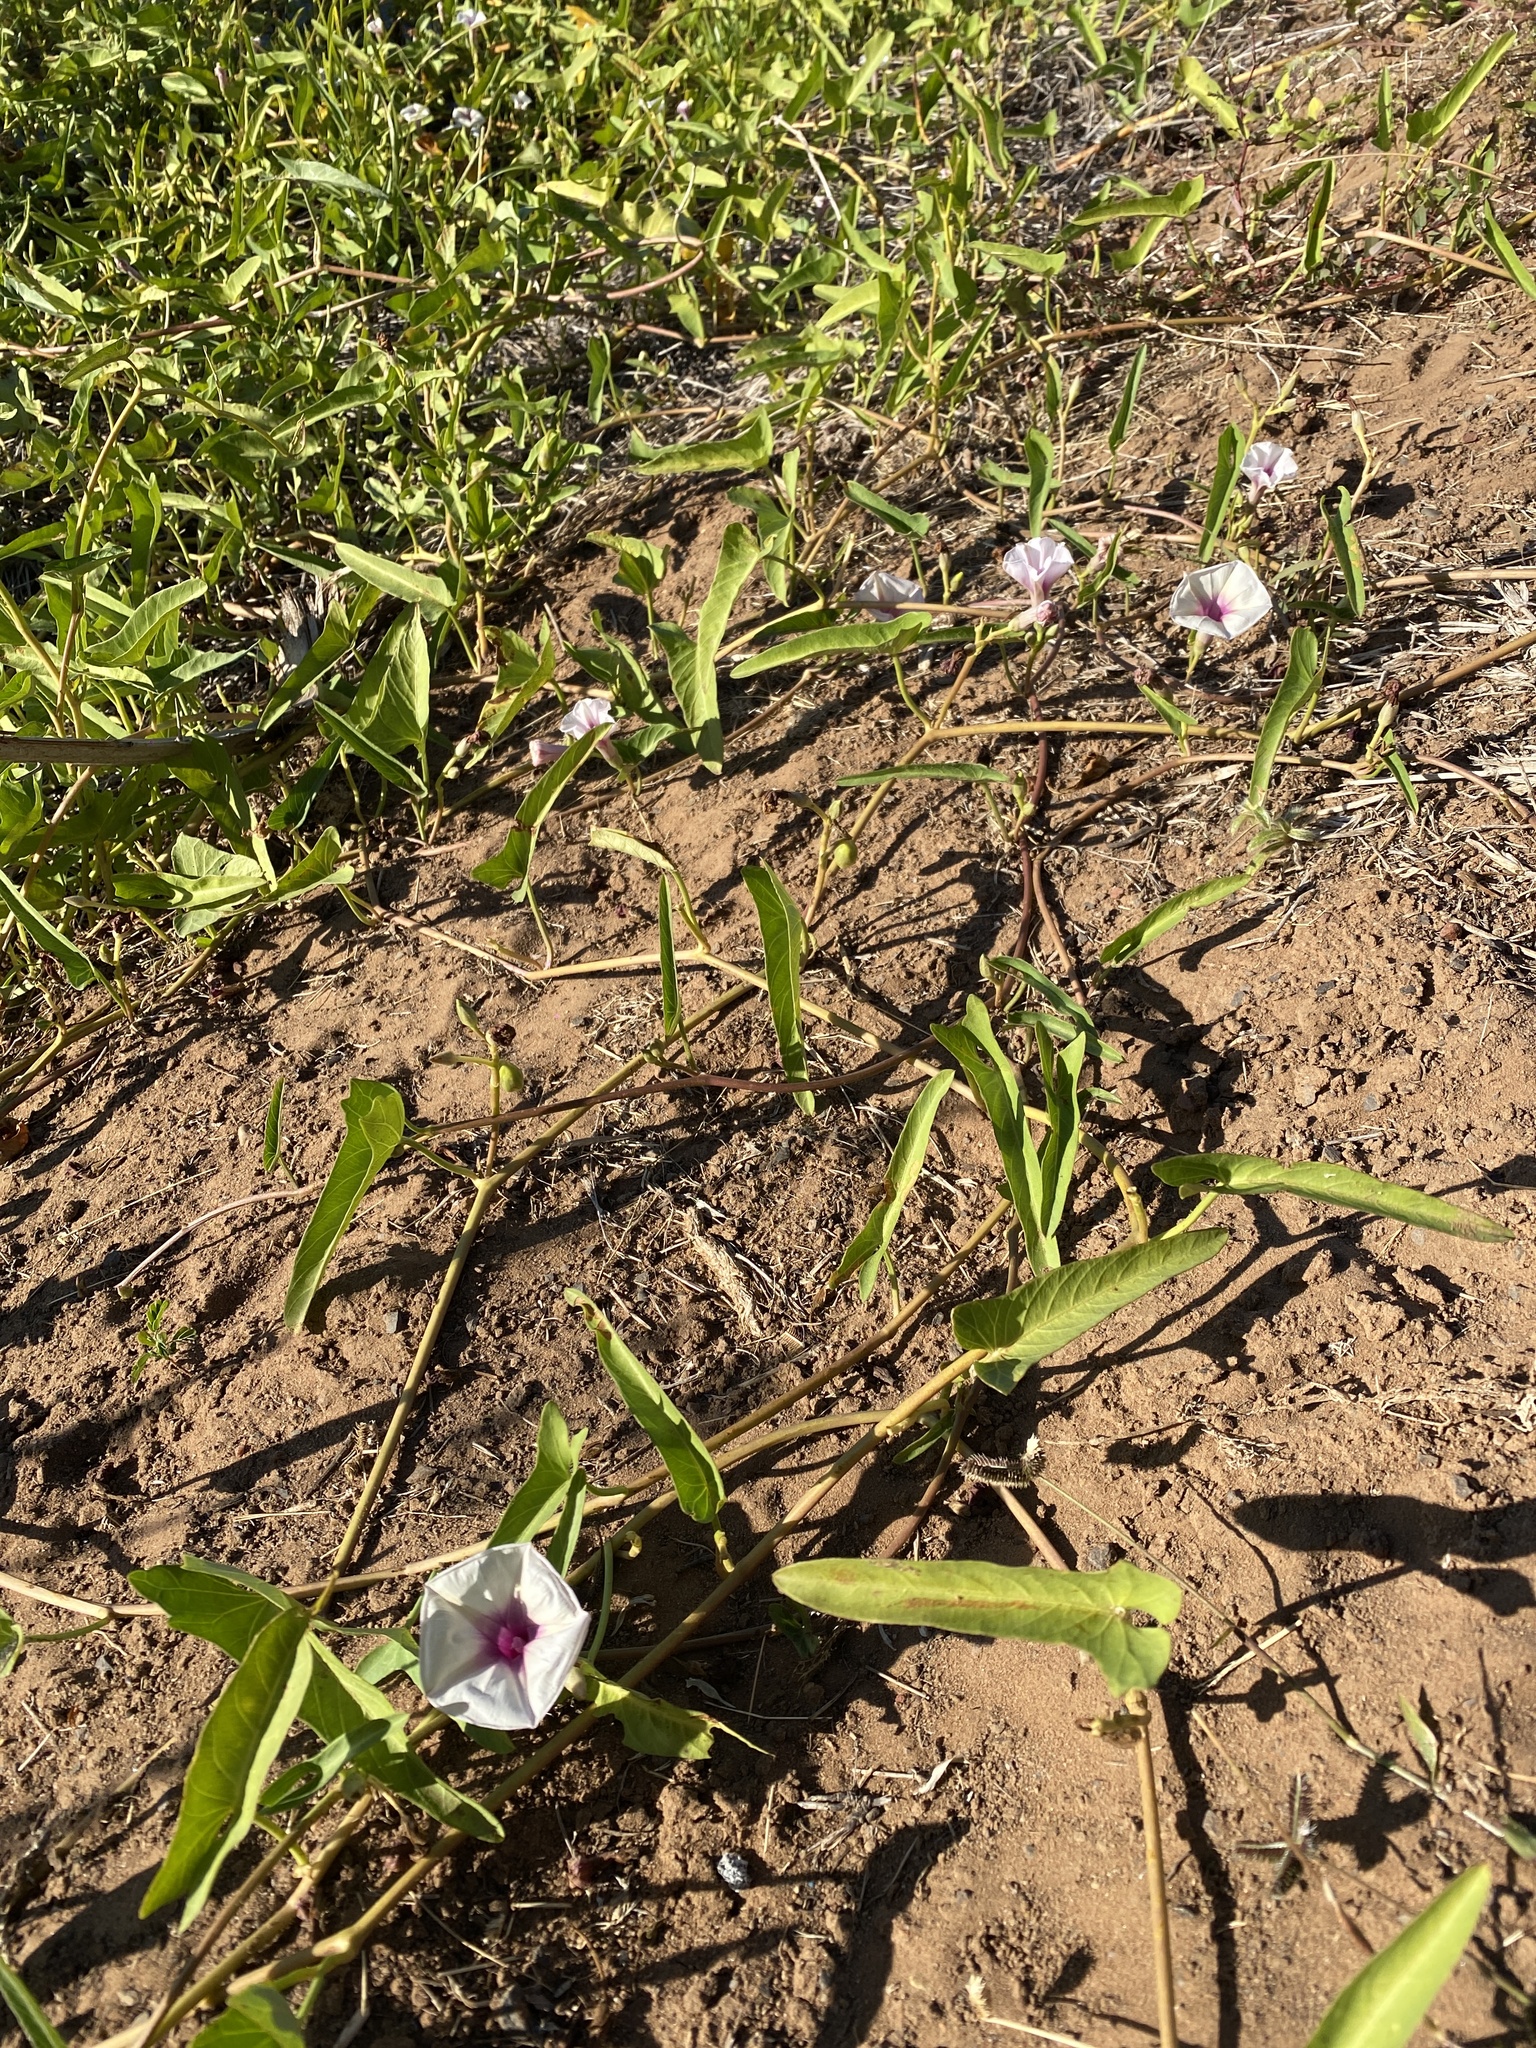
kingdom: Plantae
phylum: Tracheophyta
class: Magnoliopsida
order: Solanales
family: Convolvulaceae
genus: Ipomoea
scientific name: Ipomoea aquatica
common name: Swamp morning-glory
